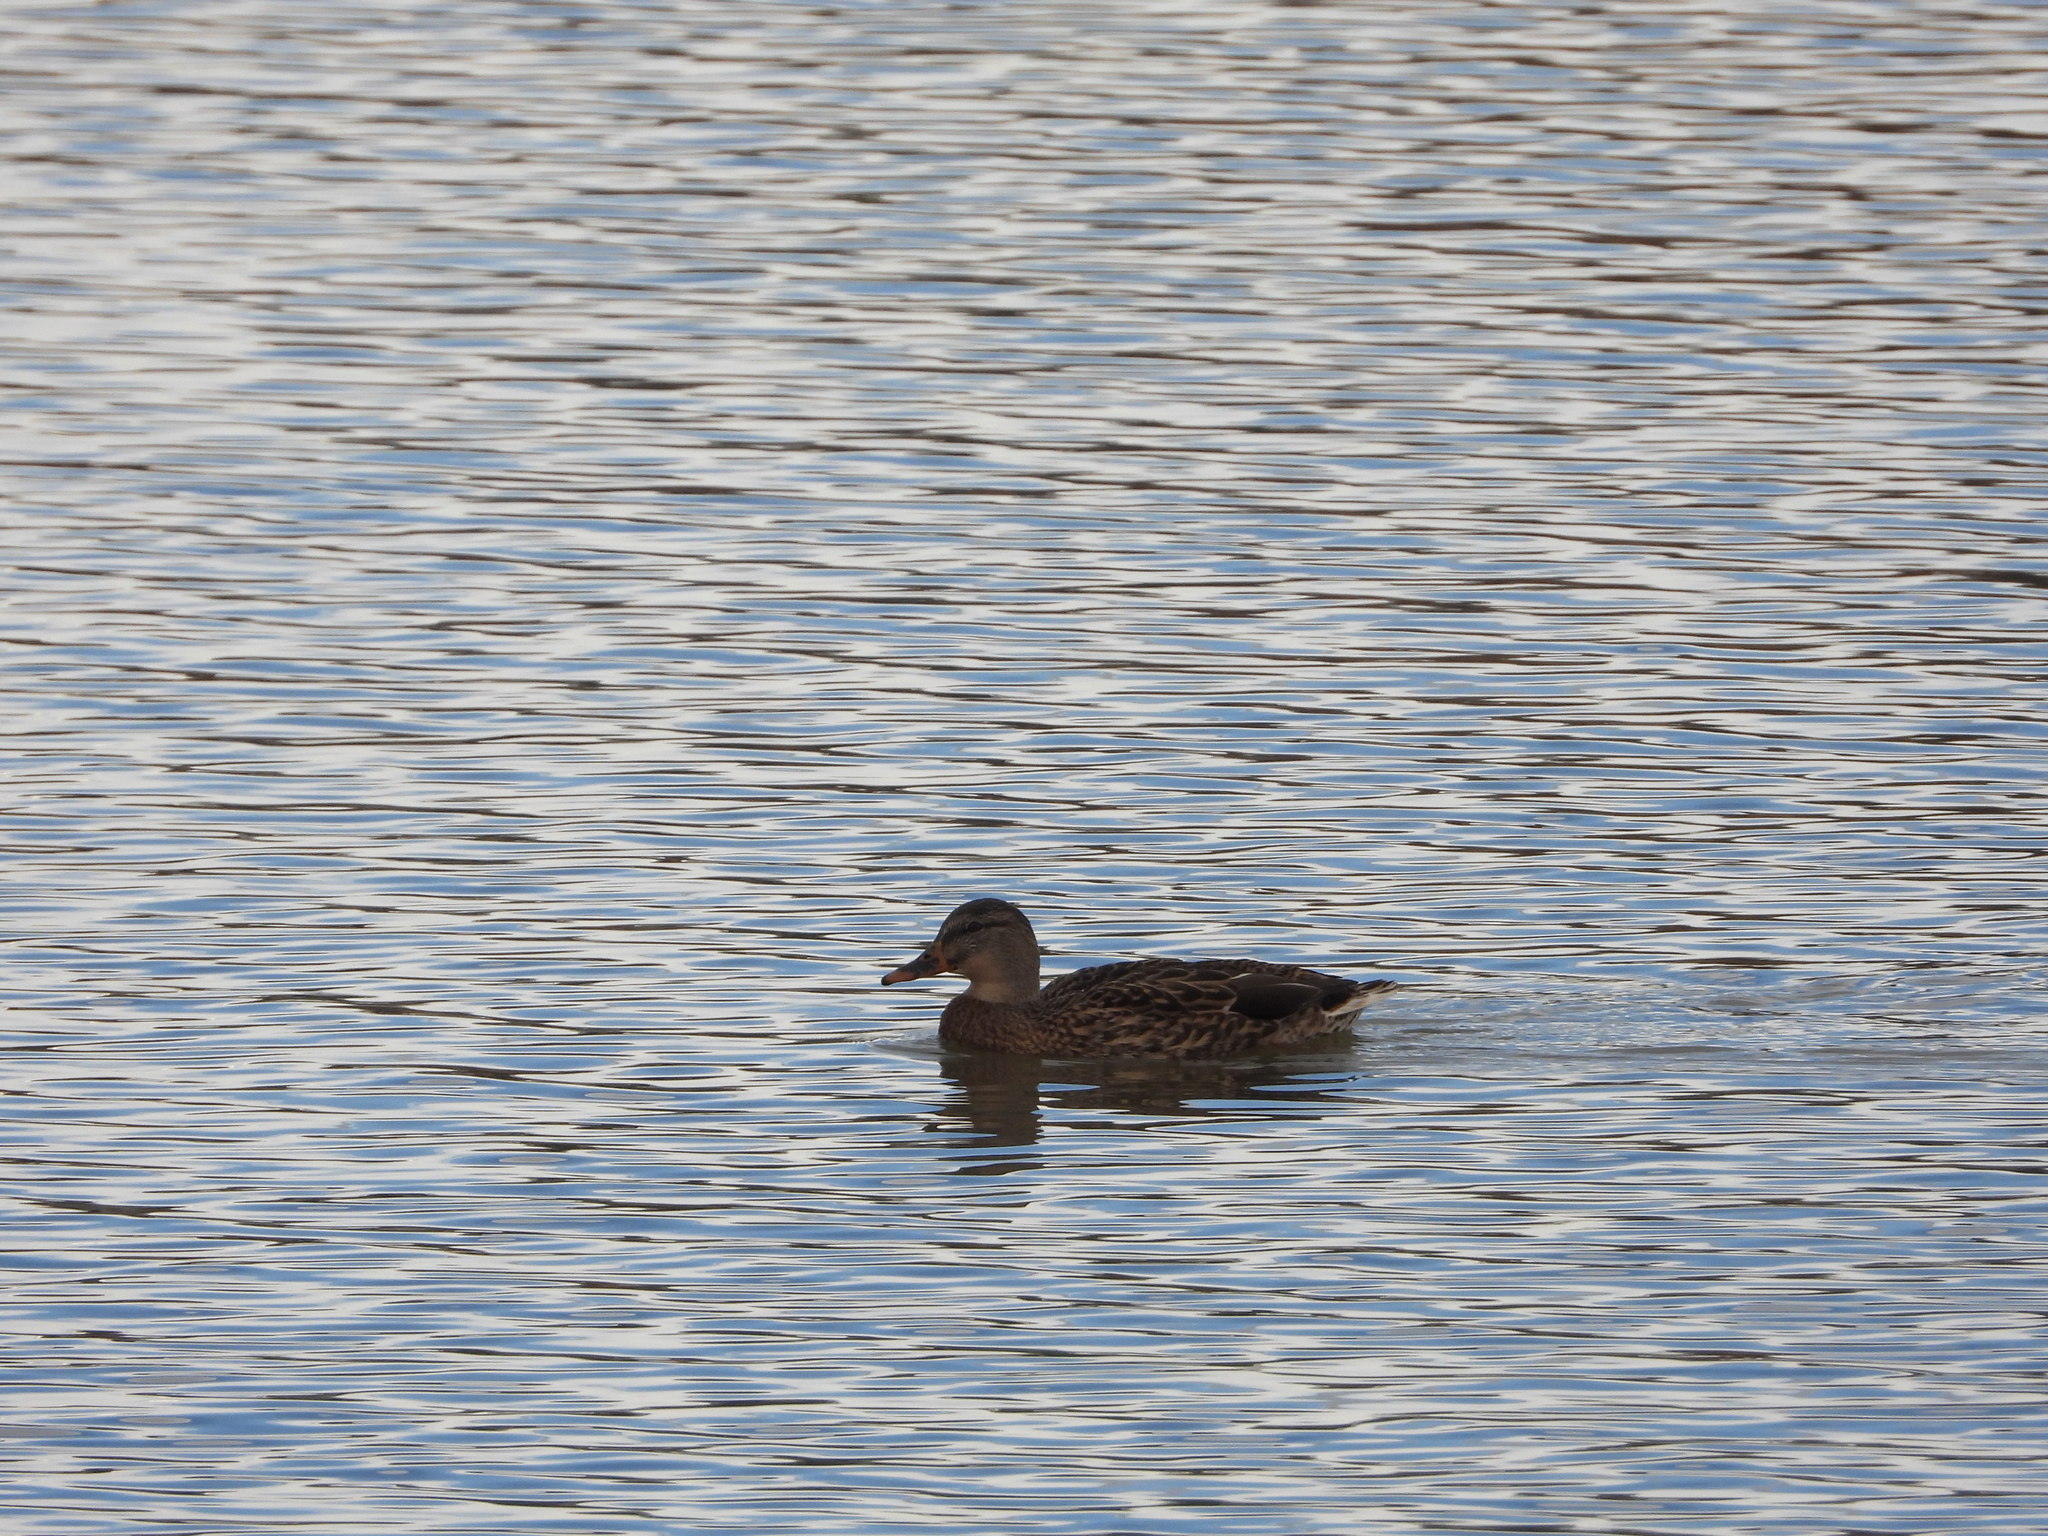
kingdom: Animalia
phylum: Chordata
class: Aves
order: Anseriformes
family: Anatidae
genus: Anas
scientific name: Anas platyrhynchos
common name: Mallard
